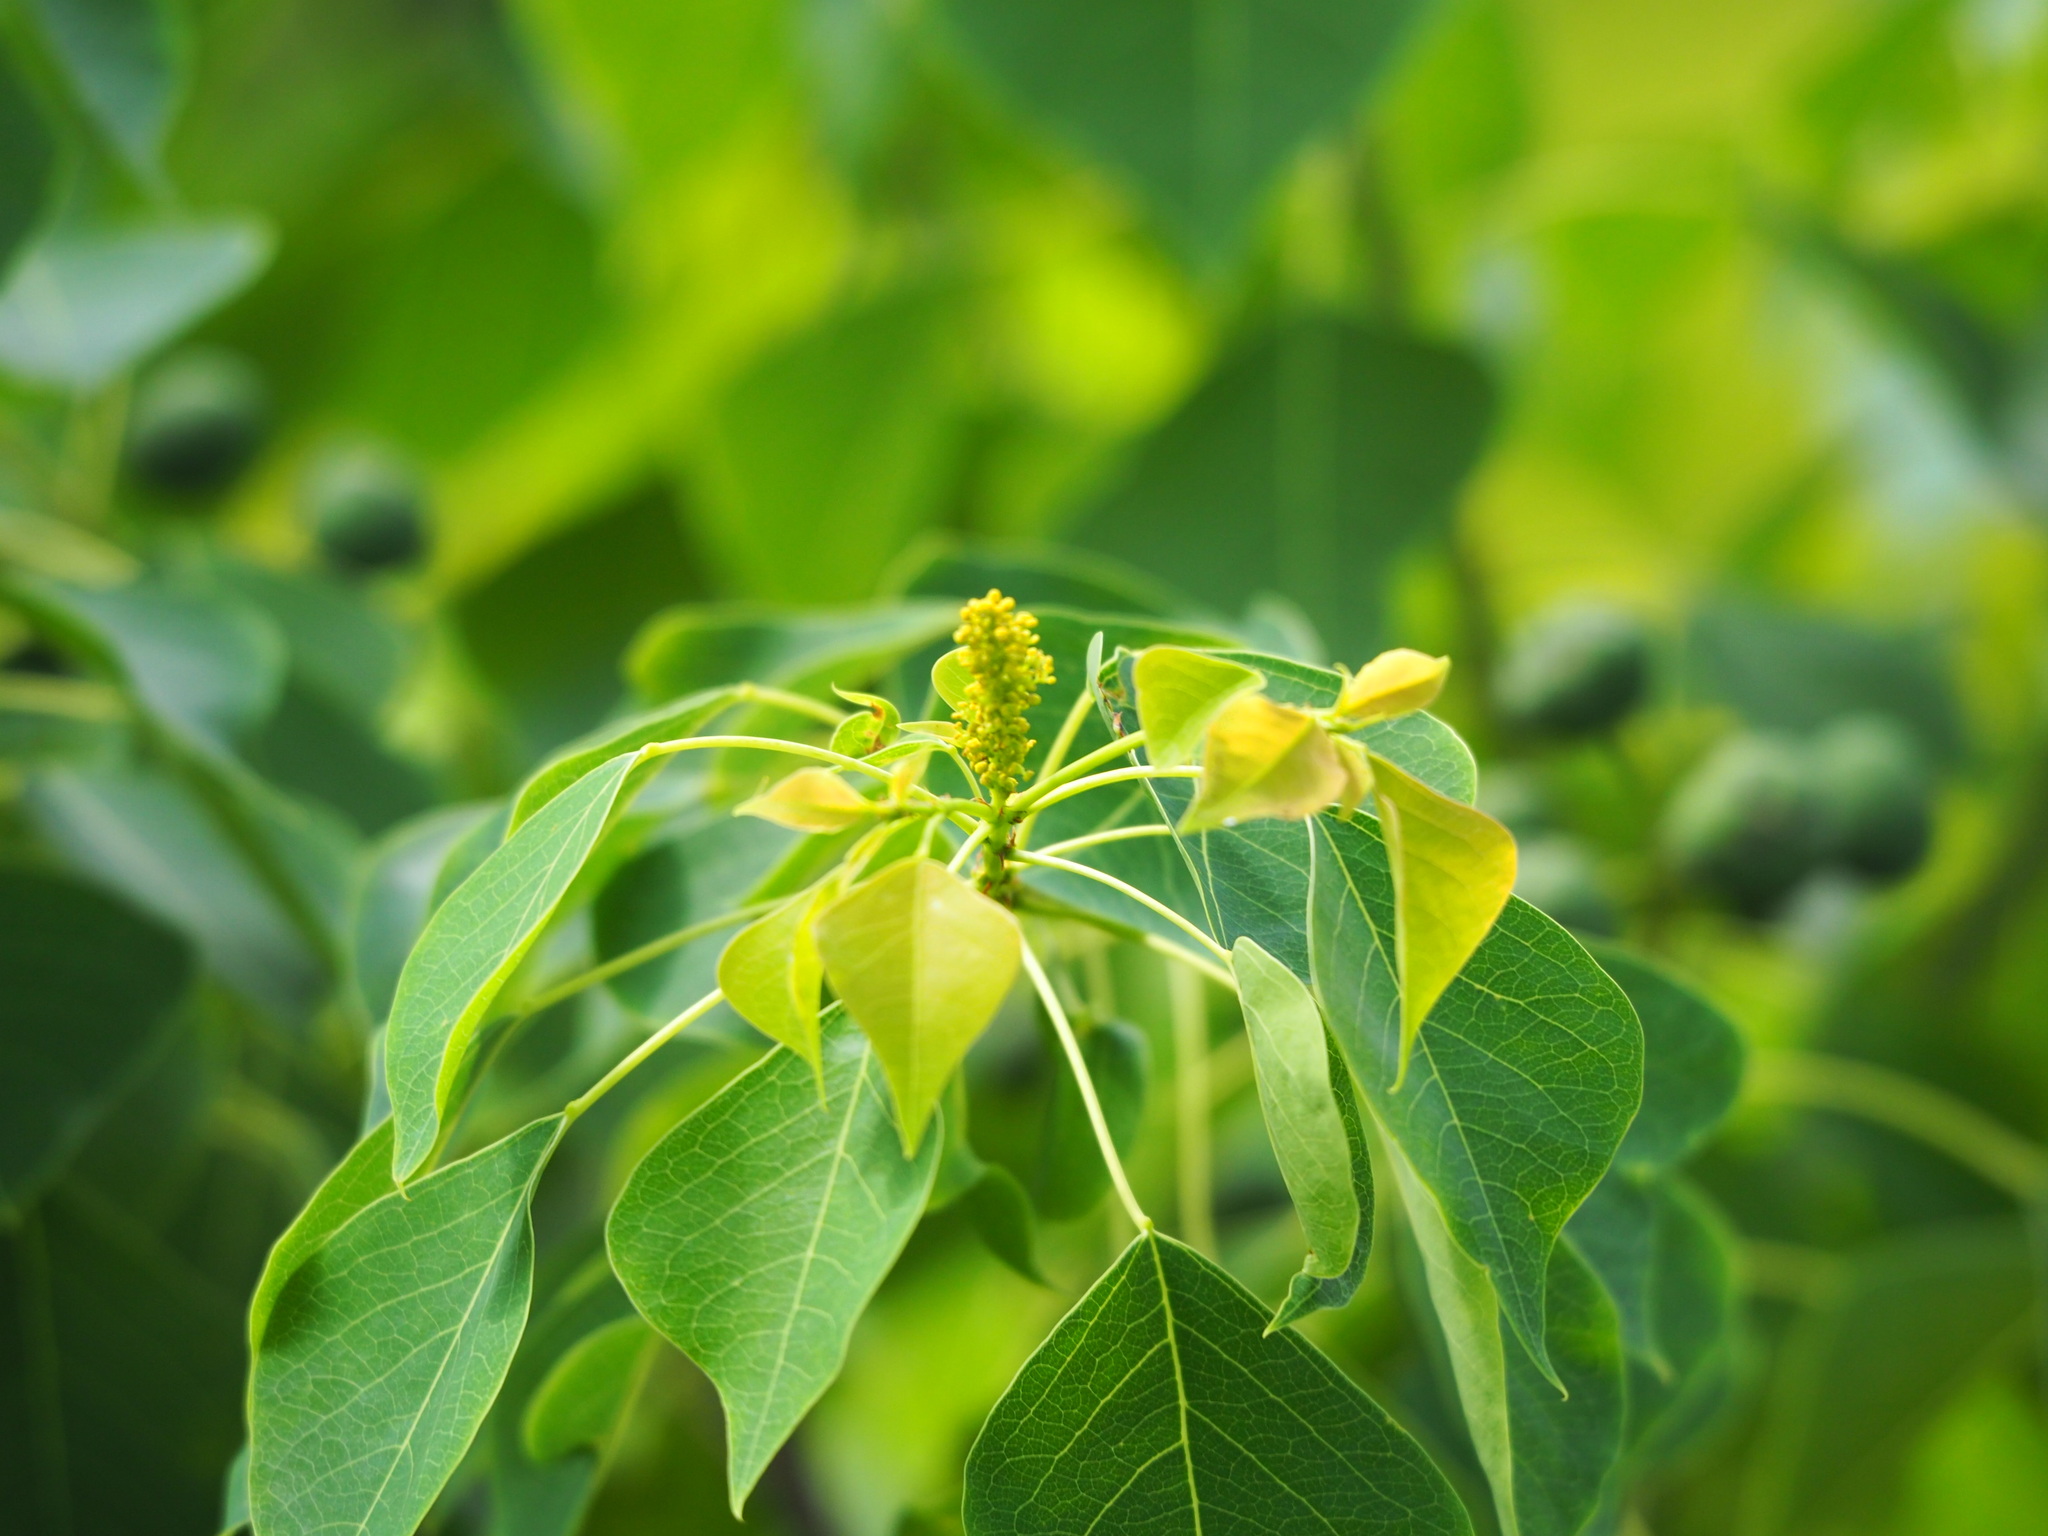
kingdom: Plantae
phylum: Tracheophyta
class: Magnoliopsida
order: Malpighiales
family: Euphorbiaceae
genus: Triadica
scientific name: Triadica sebifera
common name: Chinese tallow
